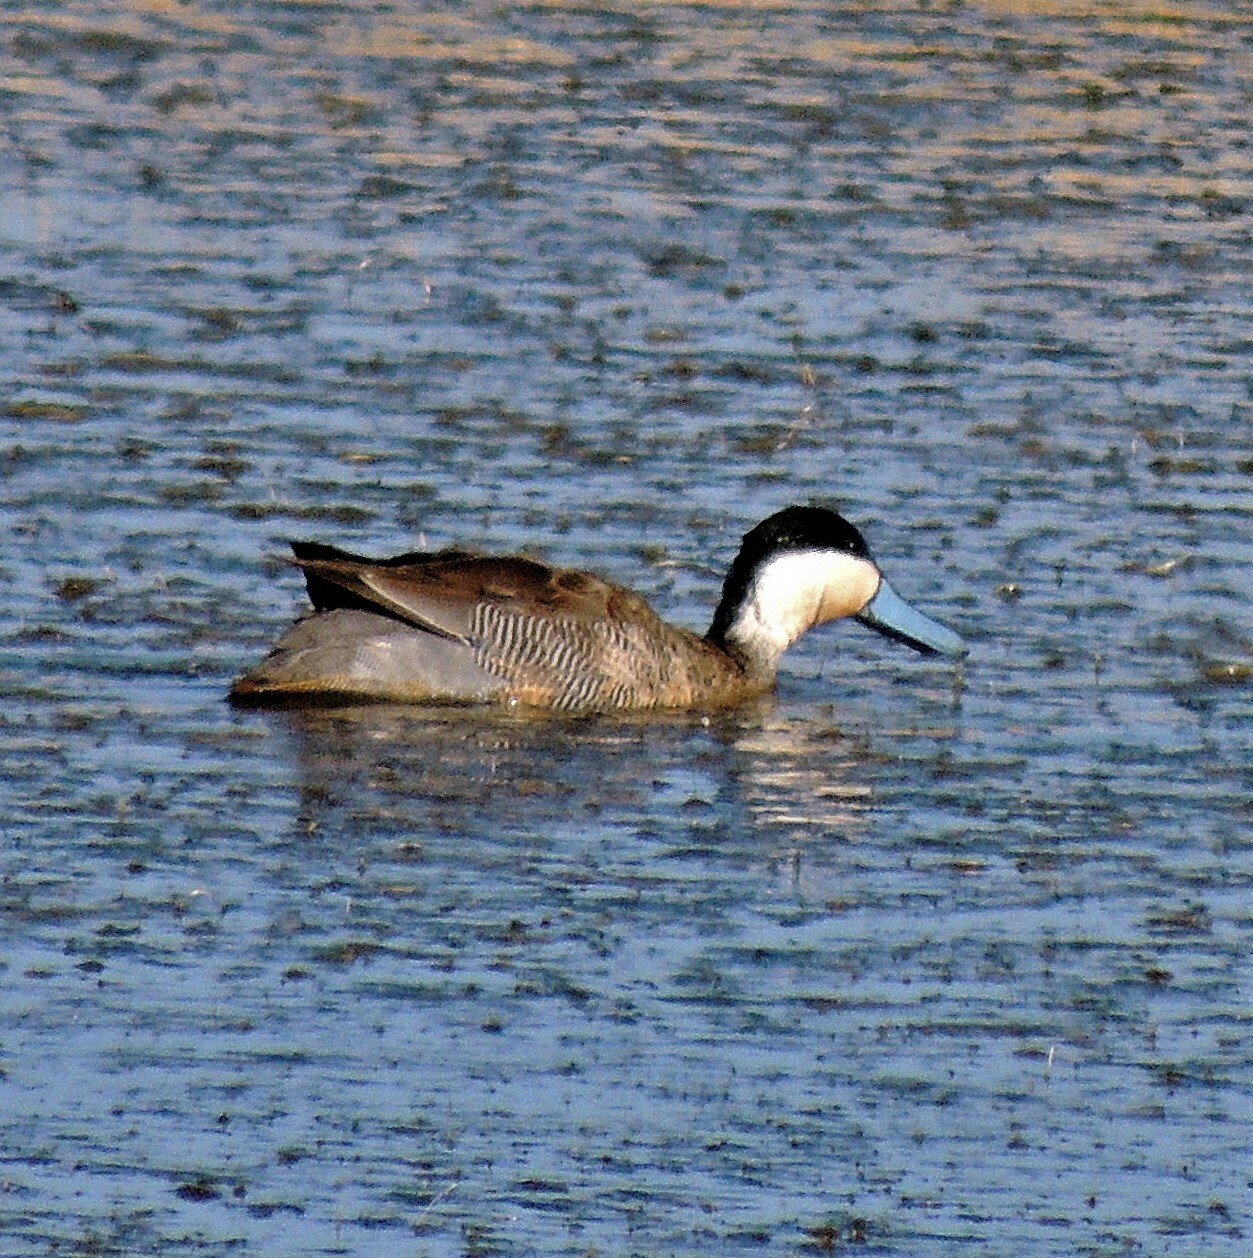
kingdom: Animalia
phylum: Chordata
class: Aves
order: Anseriformes
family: Anatidae
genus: Spatula
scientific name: Spatula puna
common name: Puna teal
